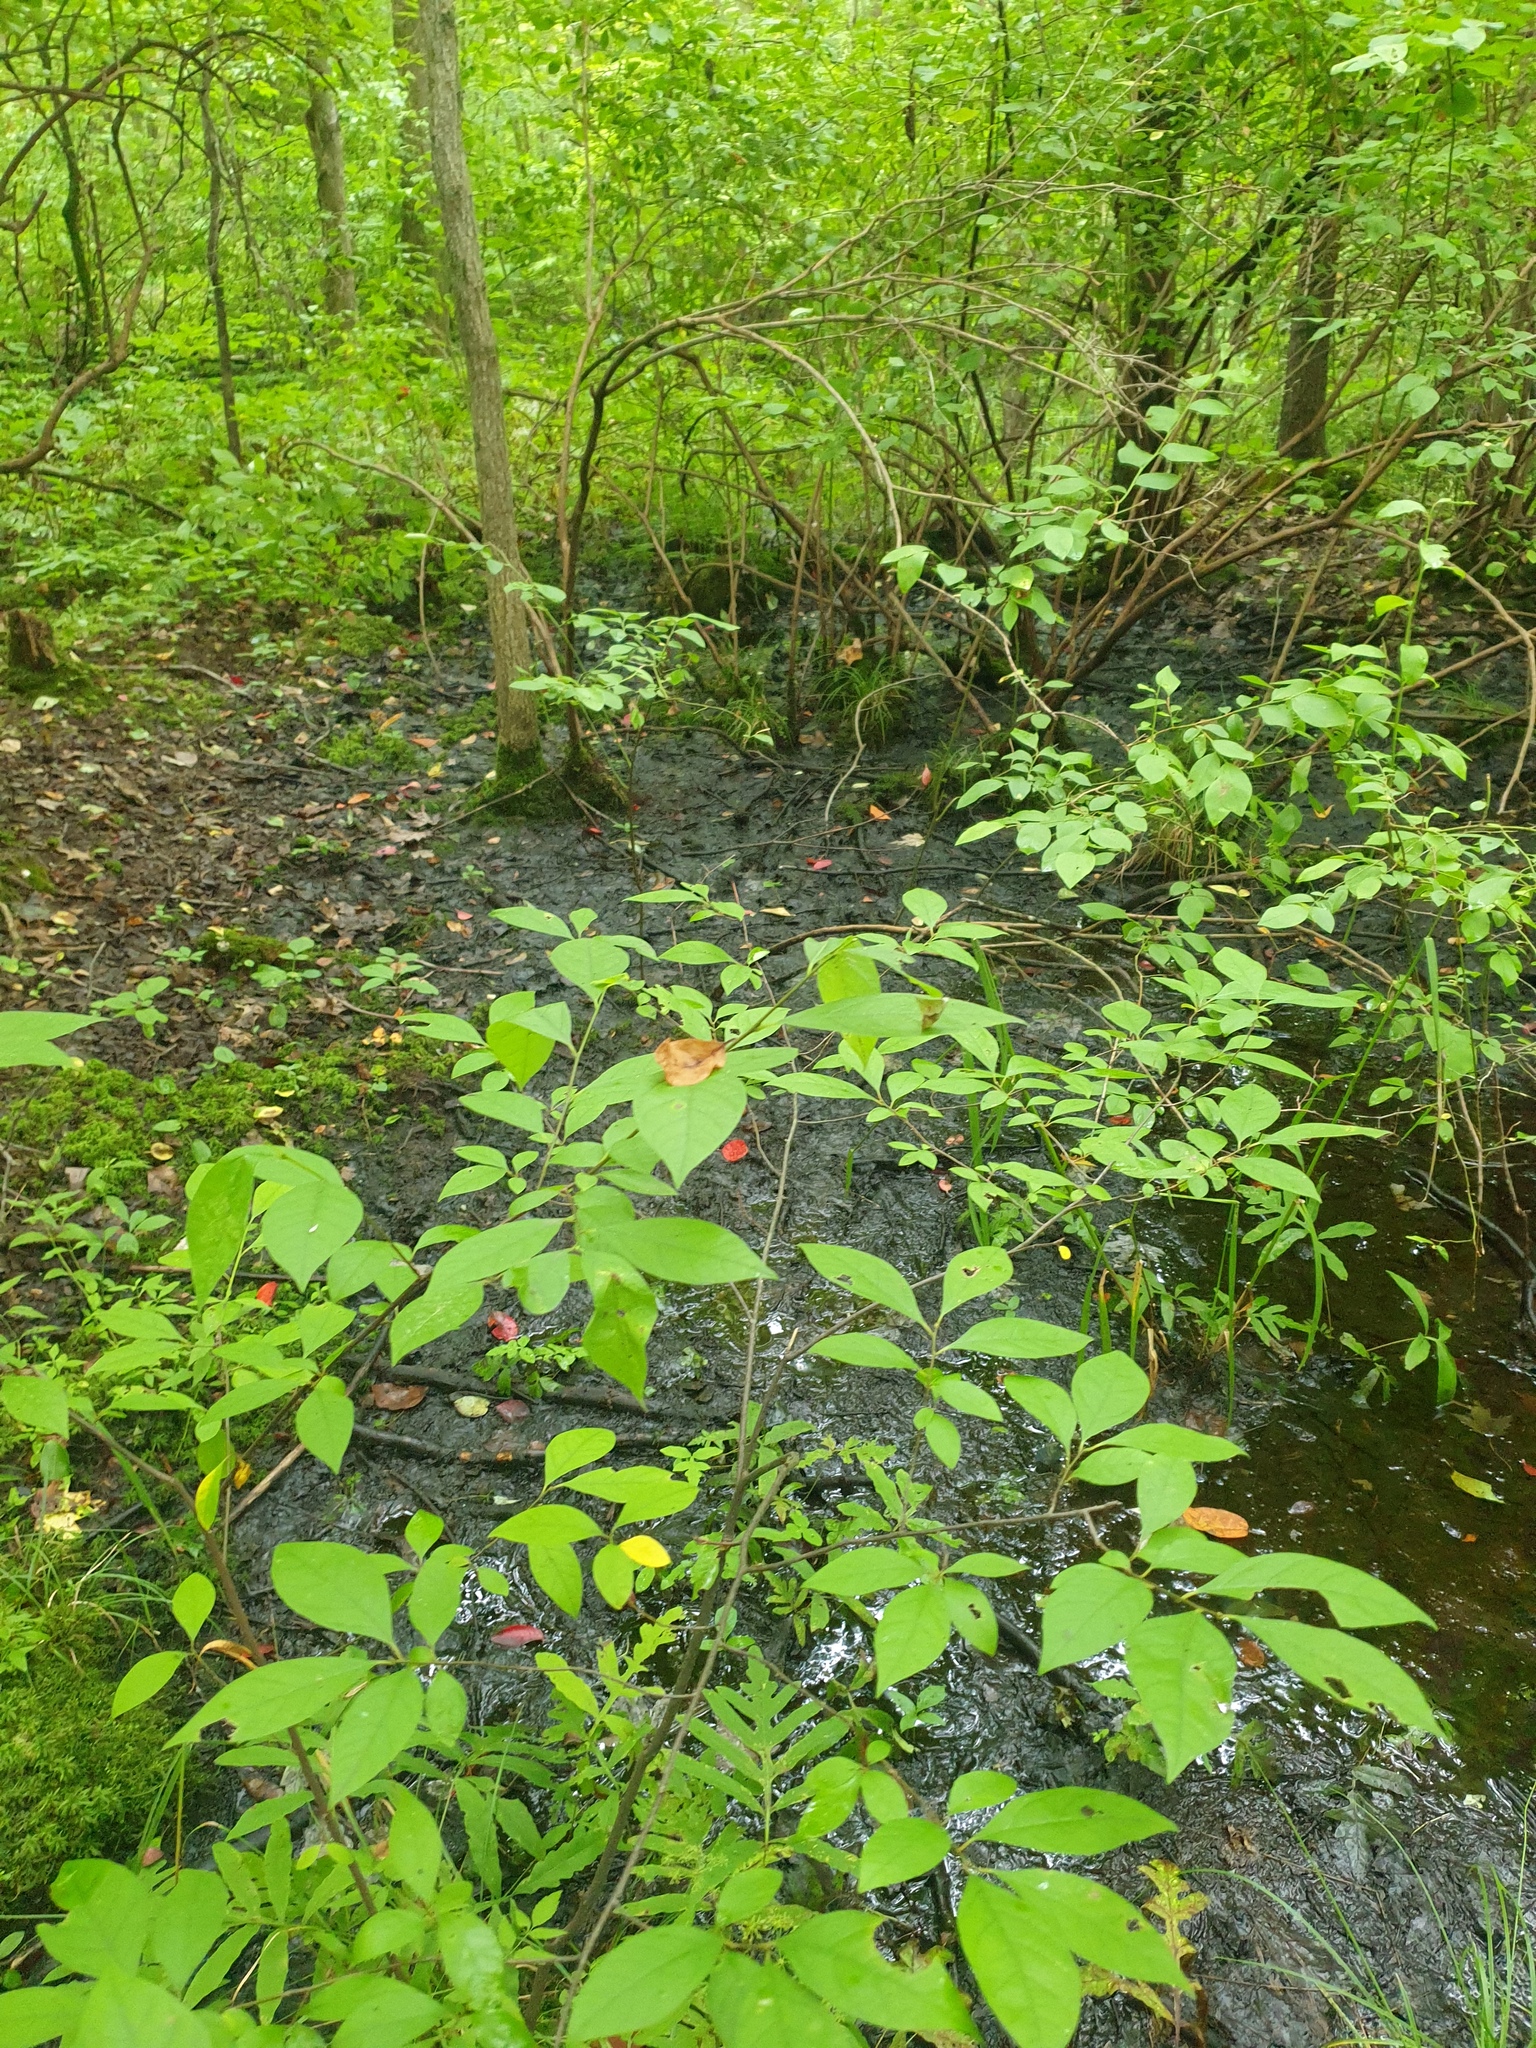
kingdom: Plantae
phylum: Tracheophyta
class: Liliopsida
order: Poales
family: Cyperaceae
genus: Carex
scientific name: Carex lupulina
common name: Hop sedge
